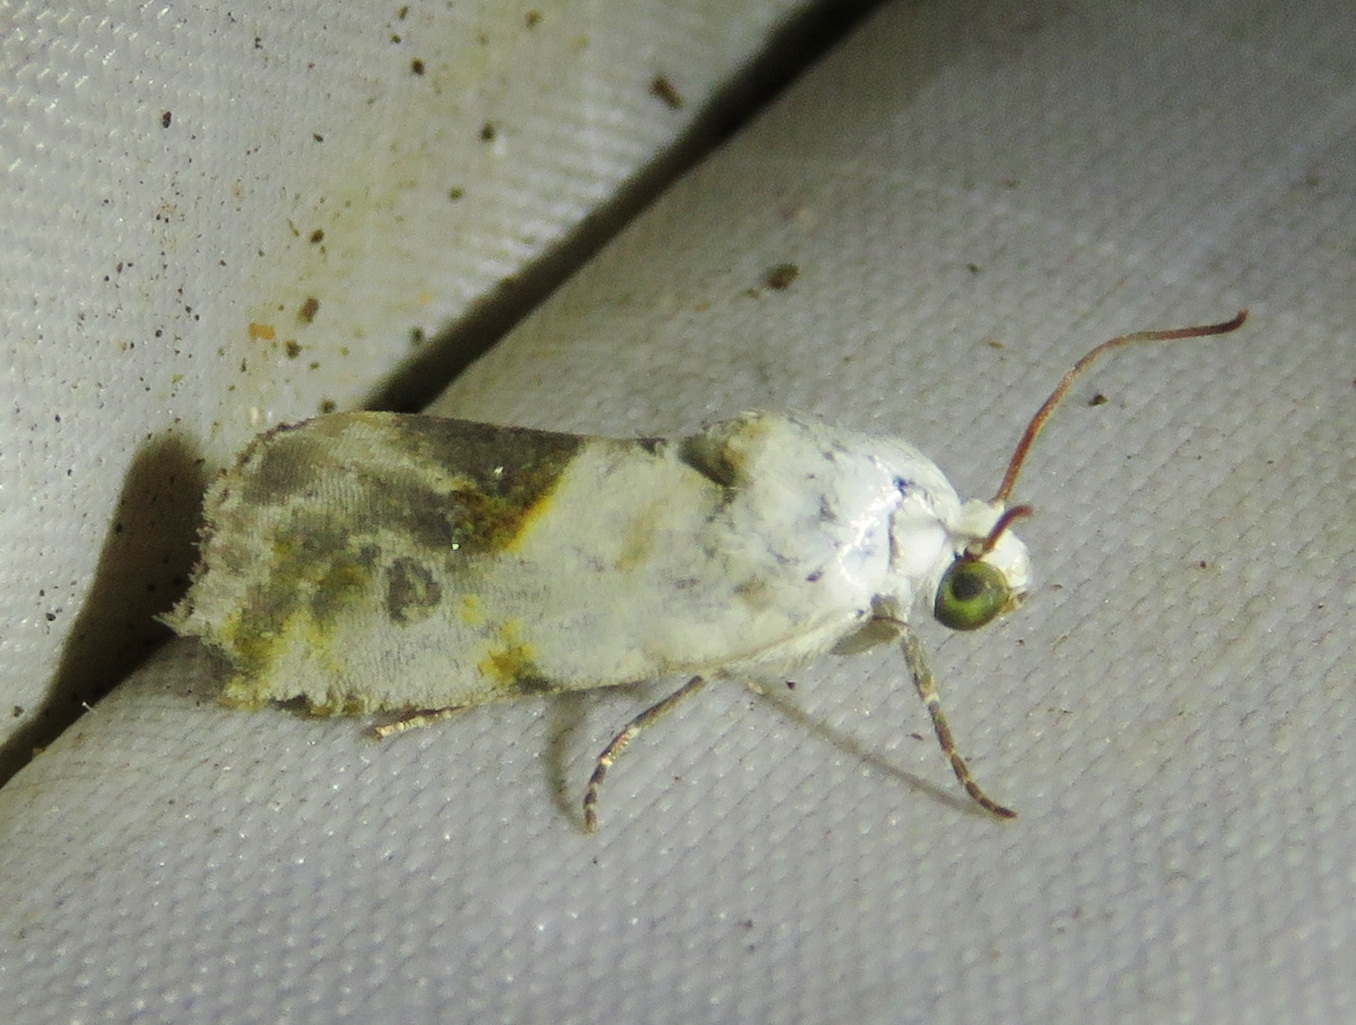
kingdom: Animalia
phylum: Arthropoda
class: Insecta
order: Lepidoptera
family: Noctuidae
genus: Acontia
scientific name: Acontia candefacta
